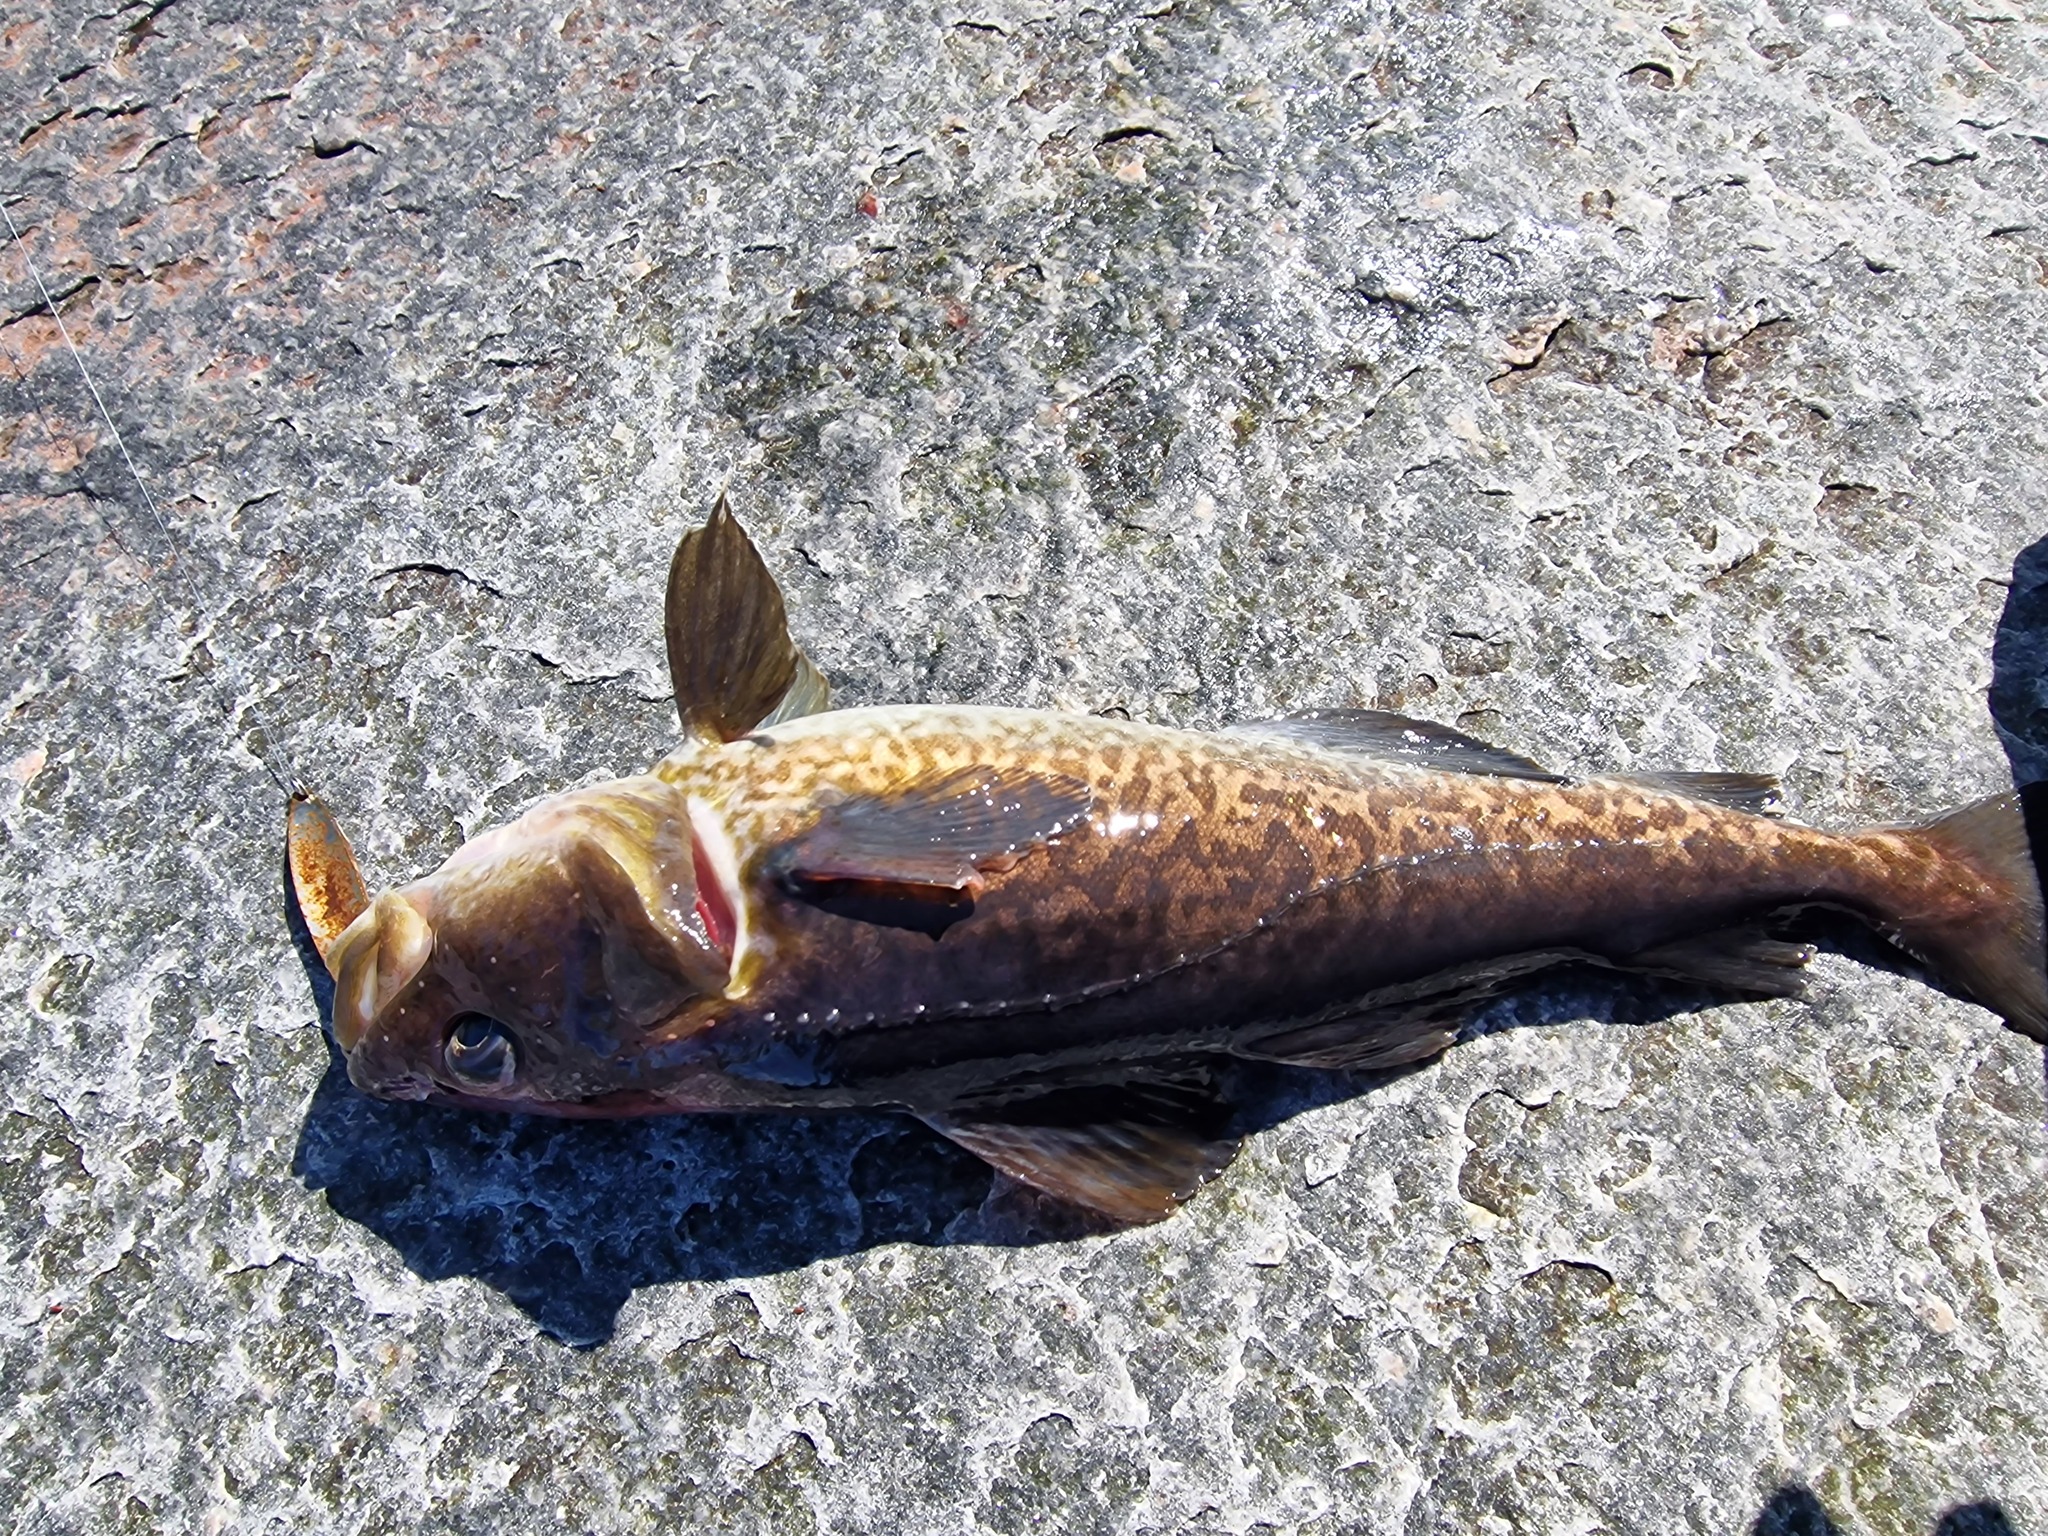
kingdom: Animalia
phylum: Chordata
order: Gadiformes
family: Gadidae
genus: Gadus
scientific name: Gadus macrocephalus
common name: Pacific cod
